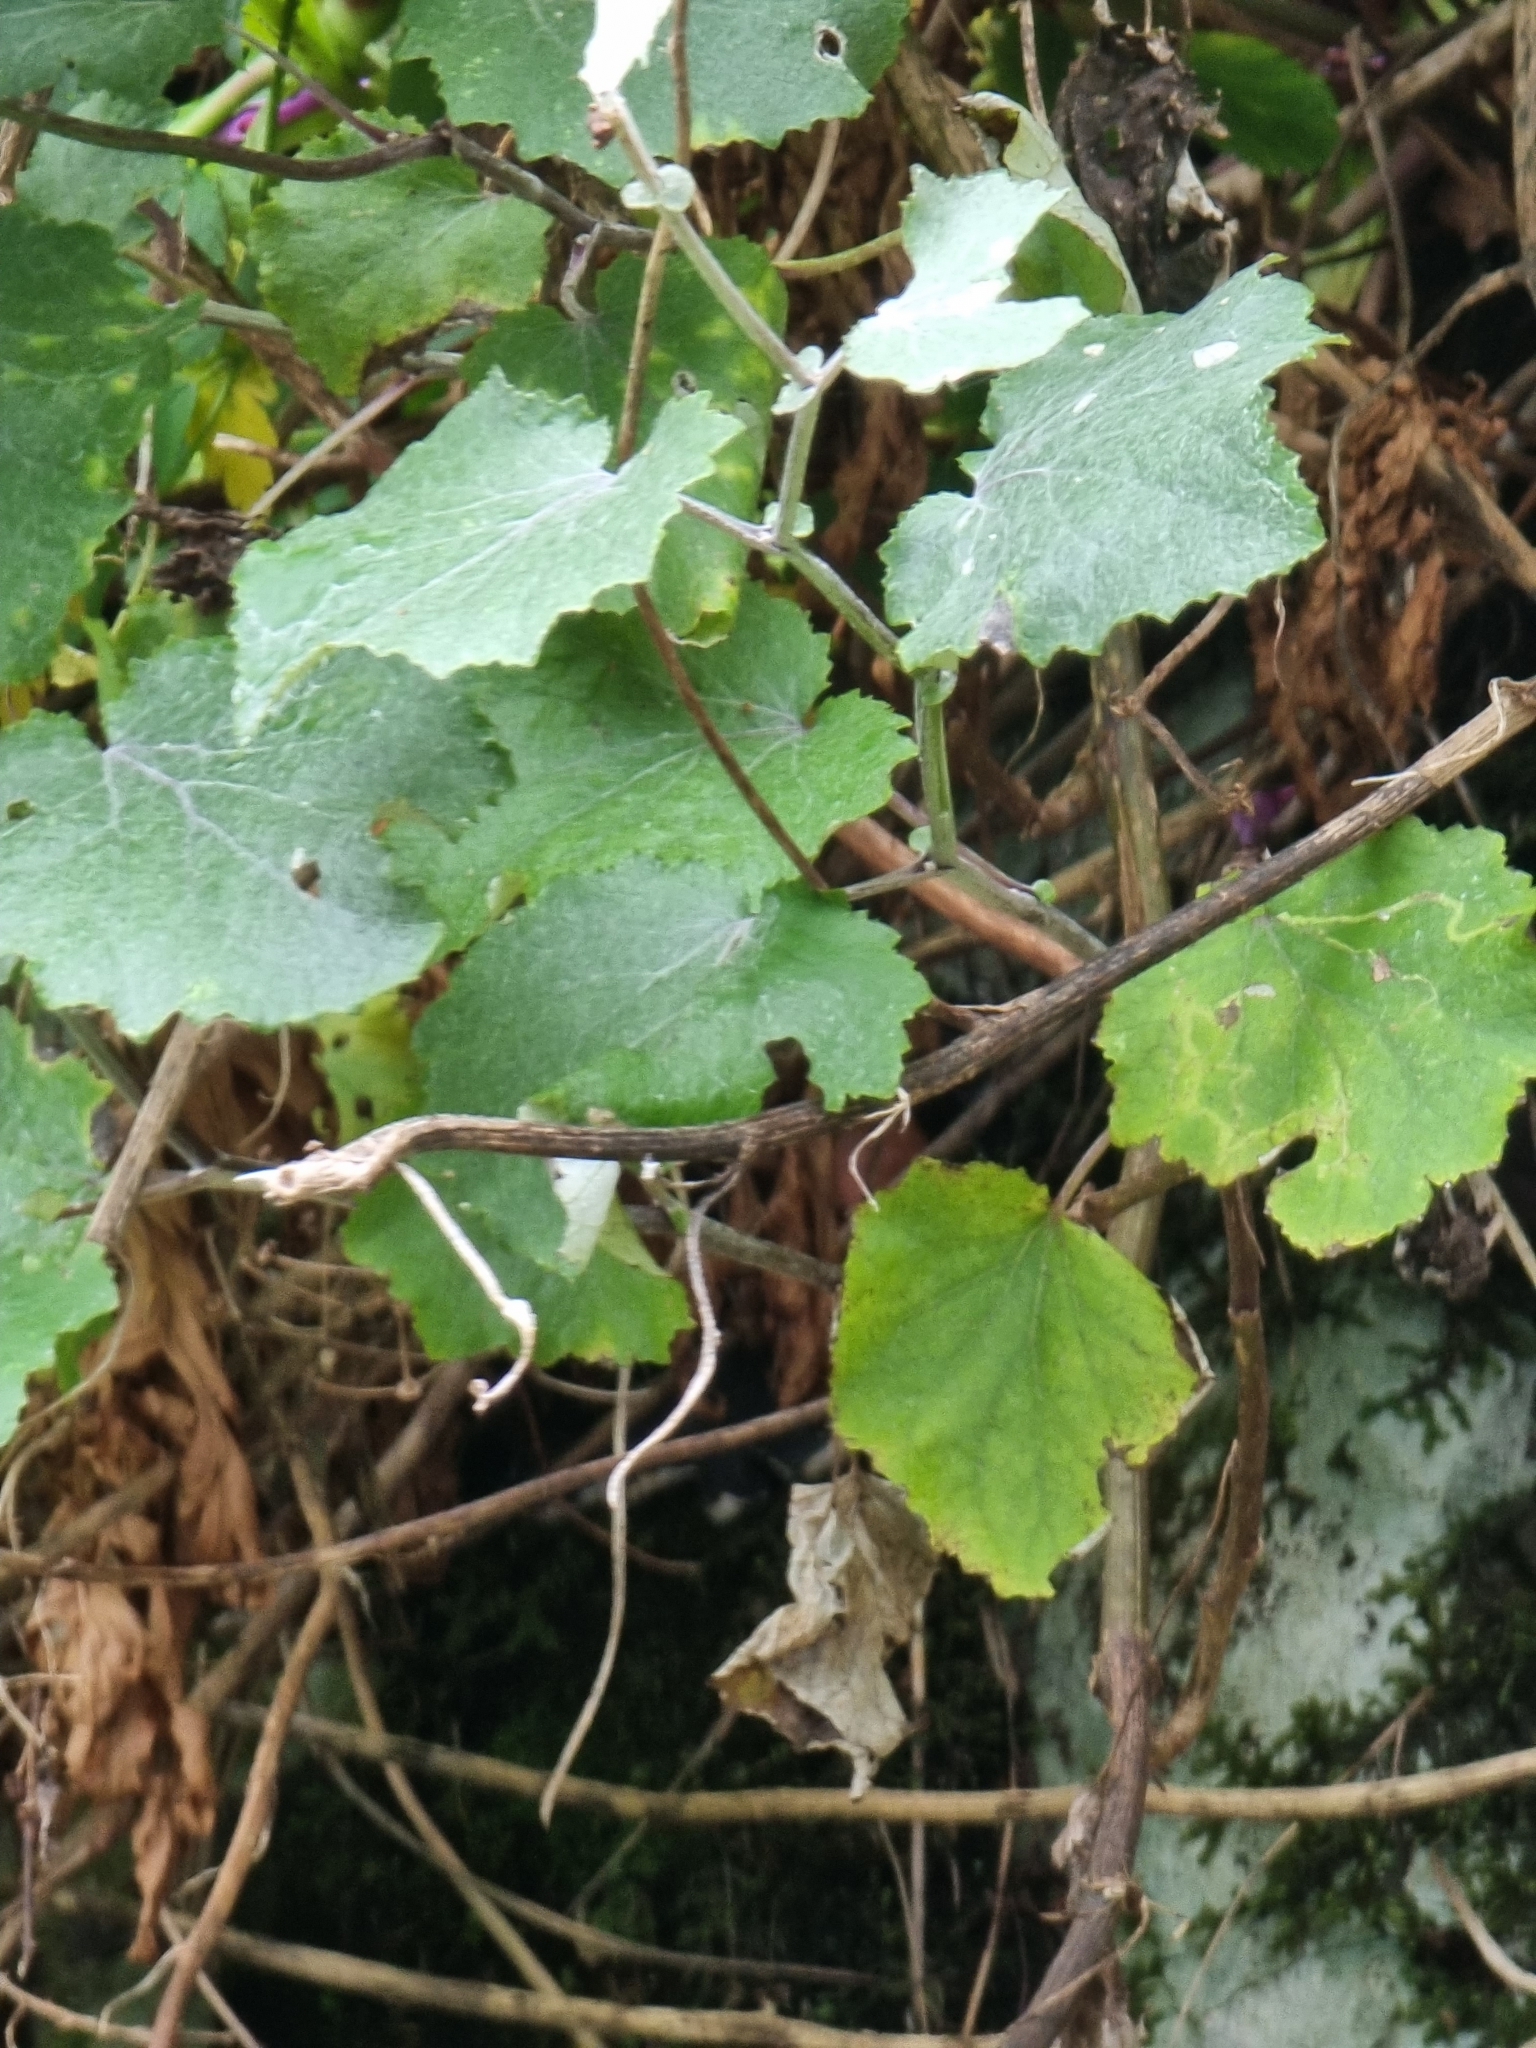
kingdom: Plantae
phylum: Tracheophyta
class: Magnoliopsida
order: Asterales
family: Asteraceae
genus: Pericallis
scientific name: Pericallis aurita
